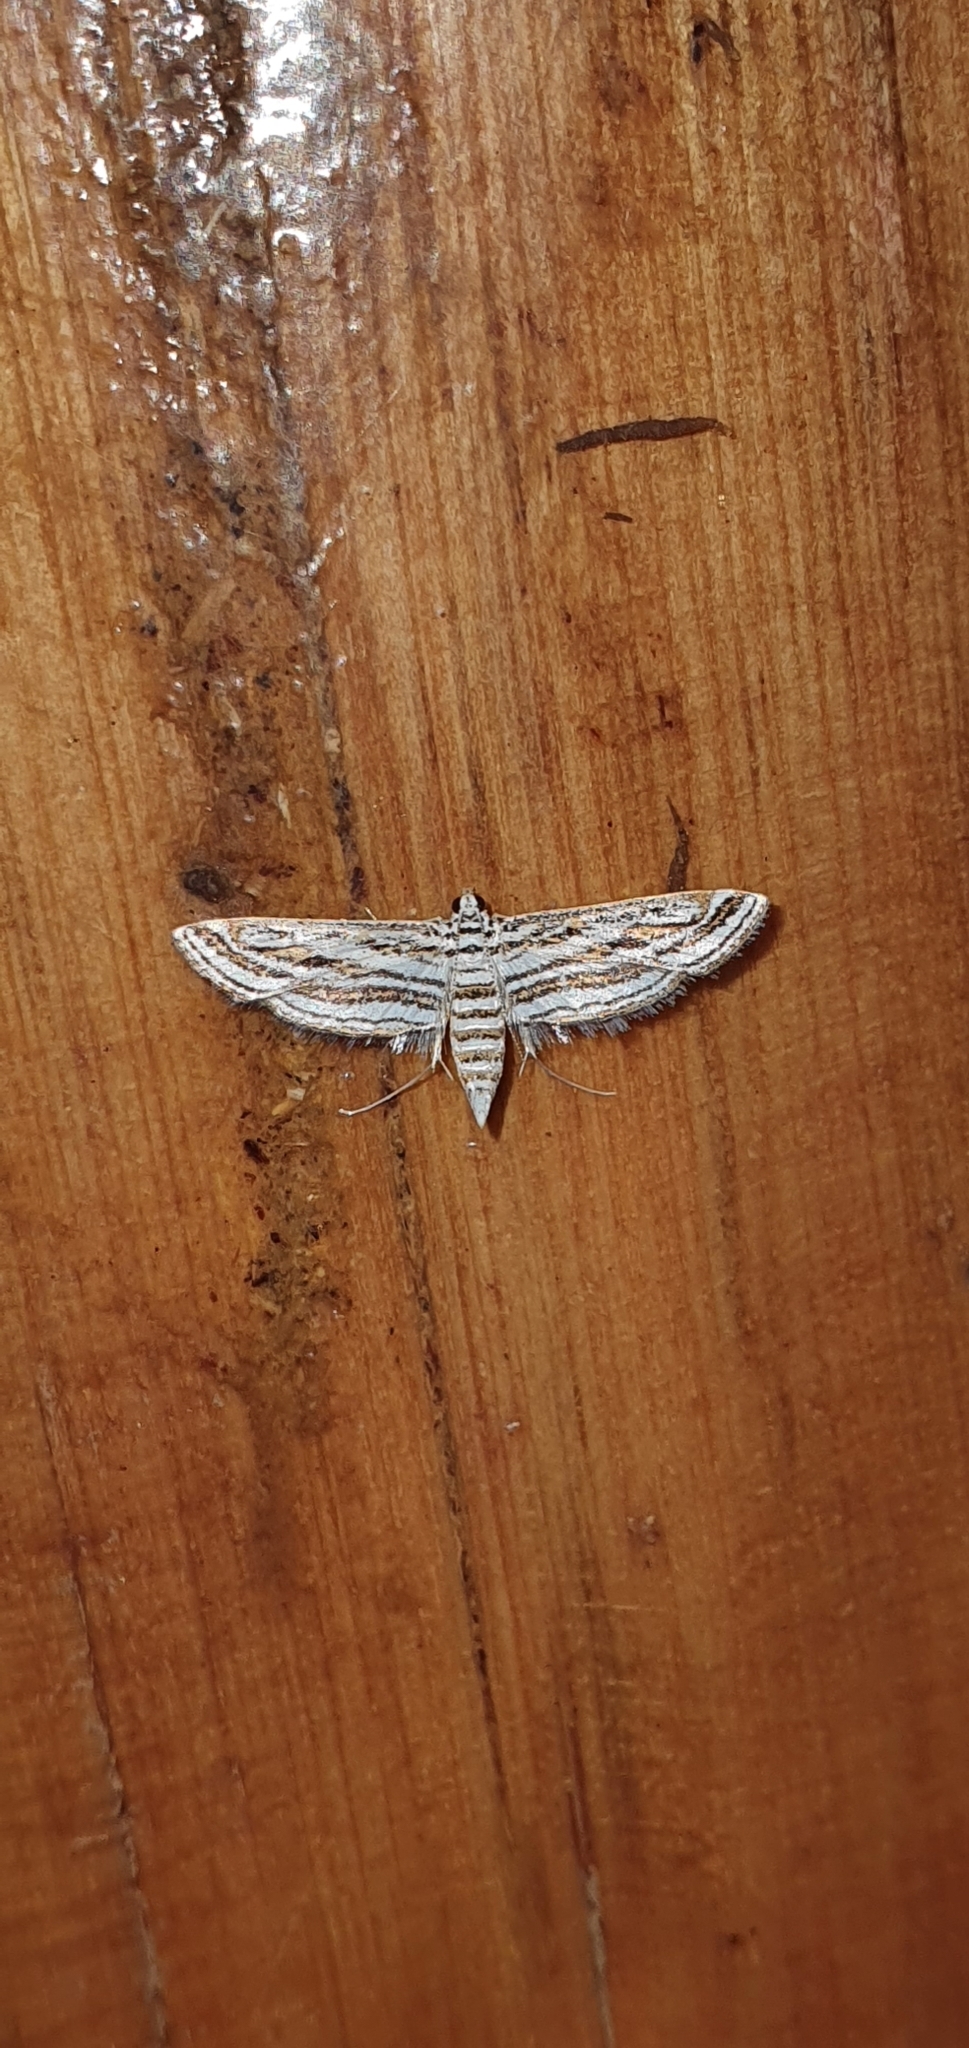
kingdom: Animalia
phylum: Arthropoda
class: Insecta
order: Lepidoptera
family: Crambidae
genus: Parapoynx
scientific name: Parapoynx fluctuosalis
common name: Moth
